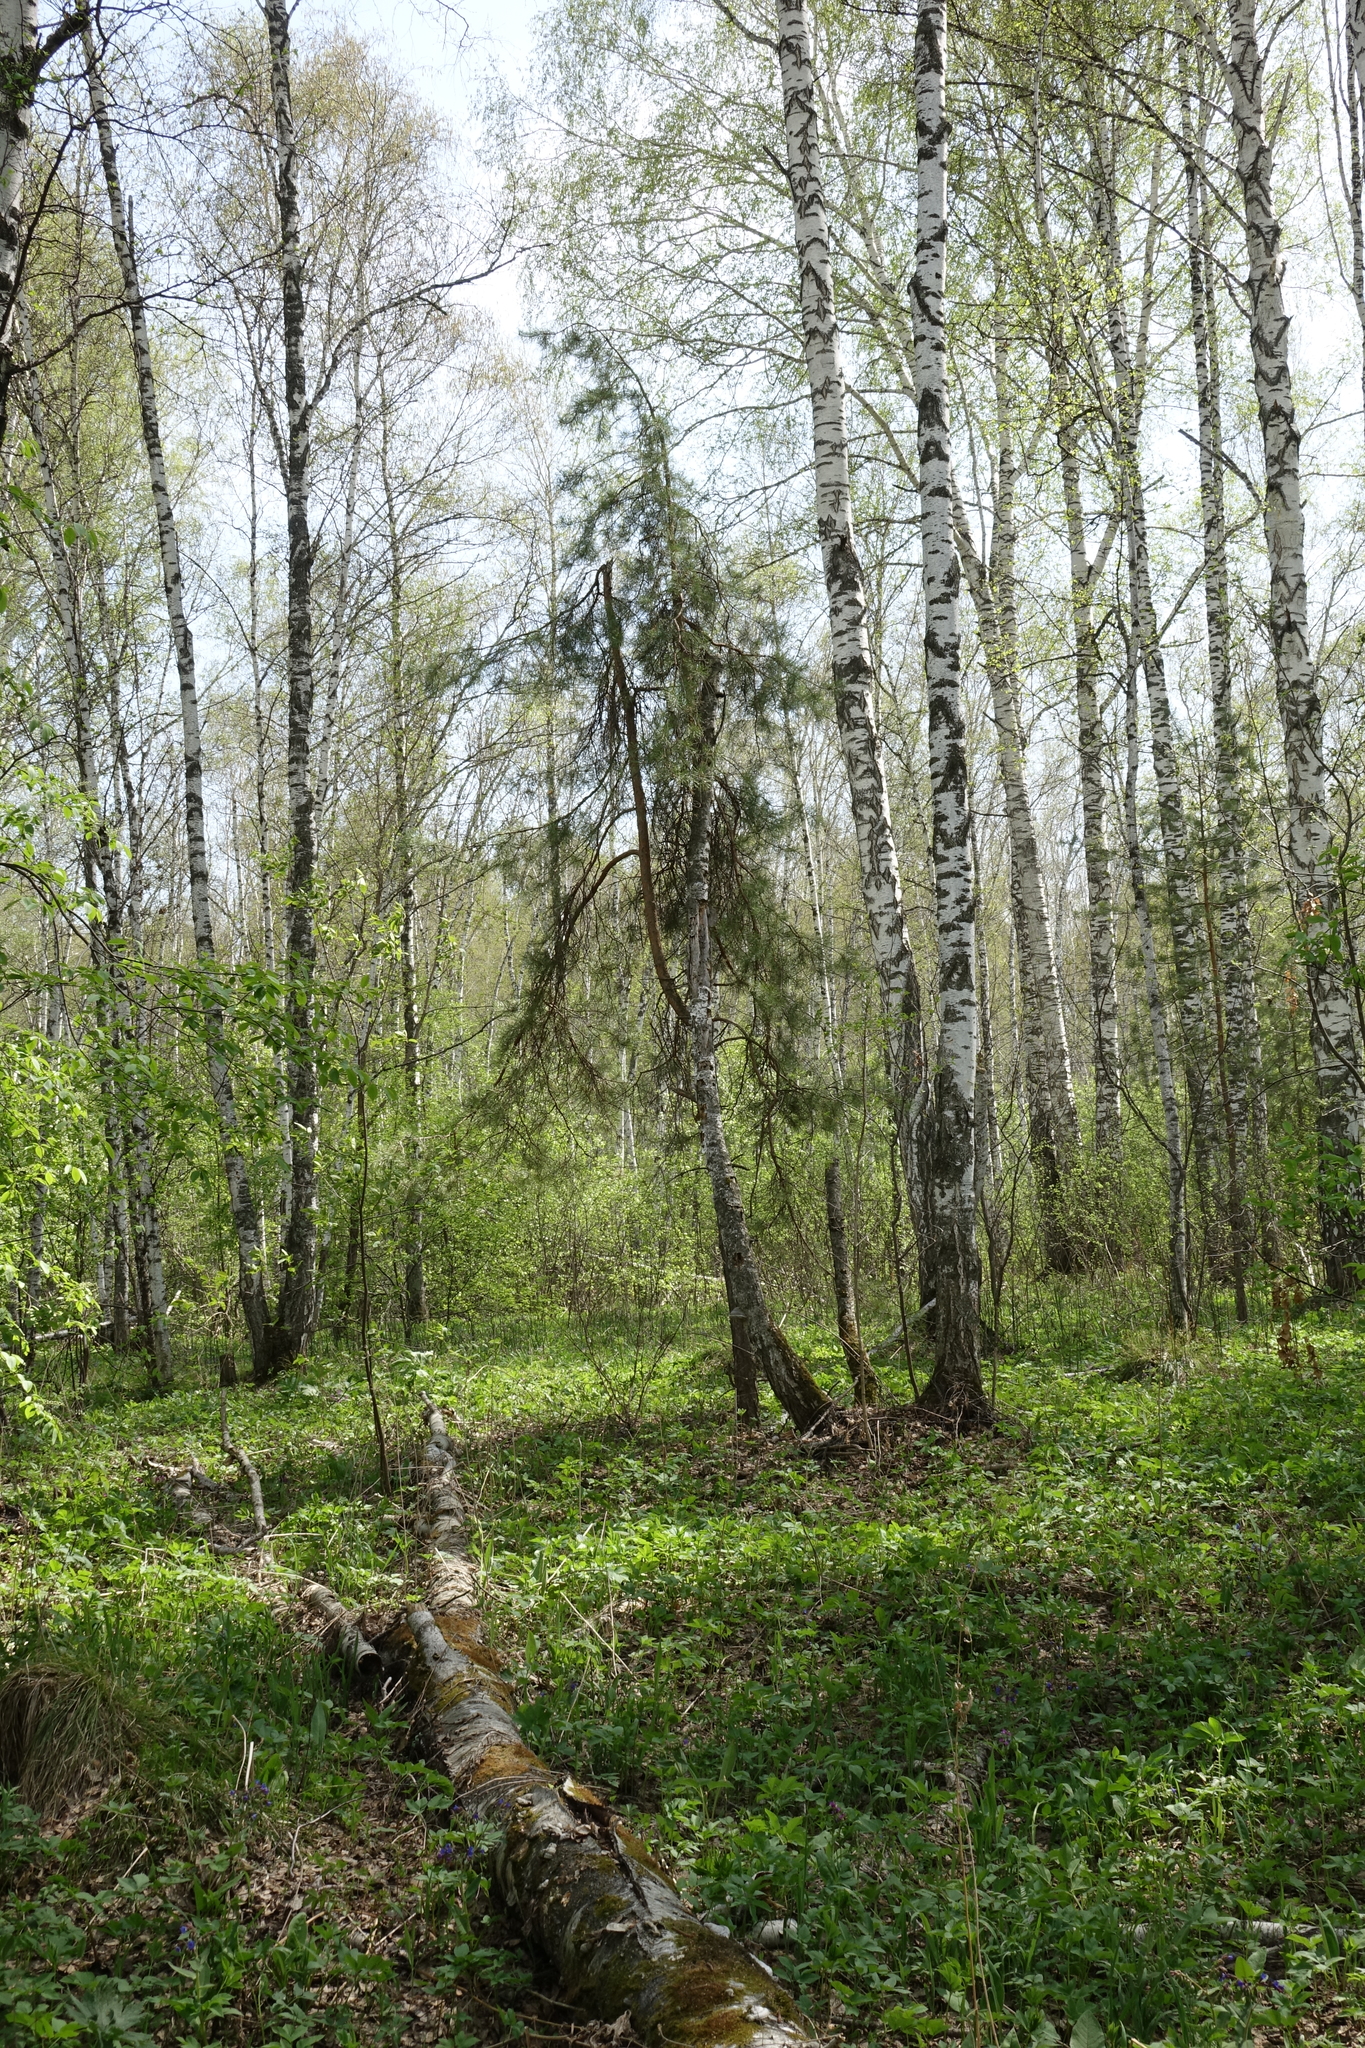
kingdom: Plantae
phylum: Tracheophyta
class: Pinopsida
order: Pinales
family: Pinaceae
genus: Pinus
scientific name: Pinus sylvestris
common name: Scots pine
